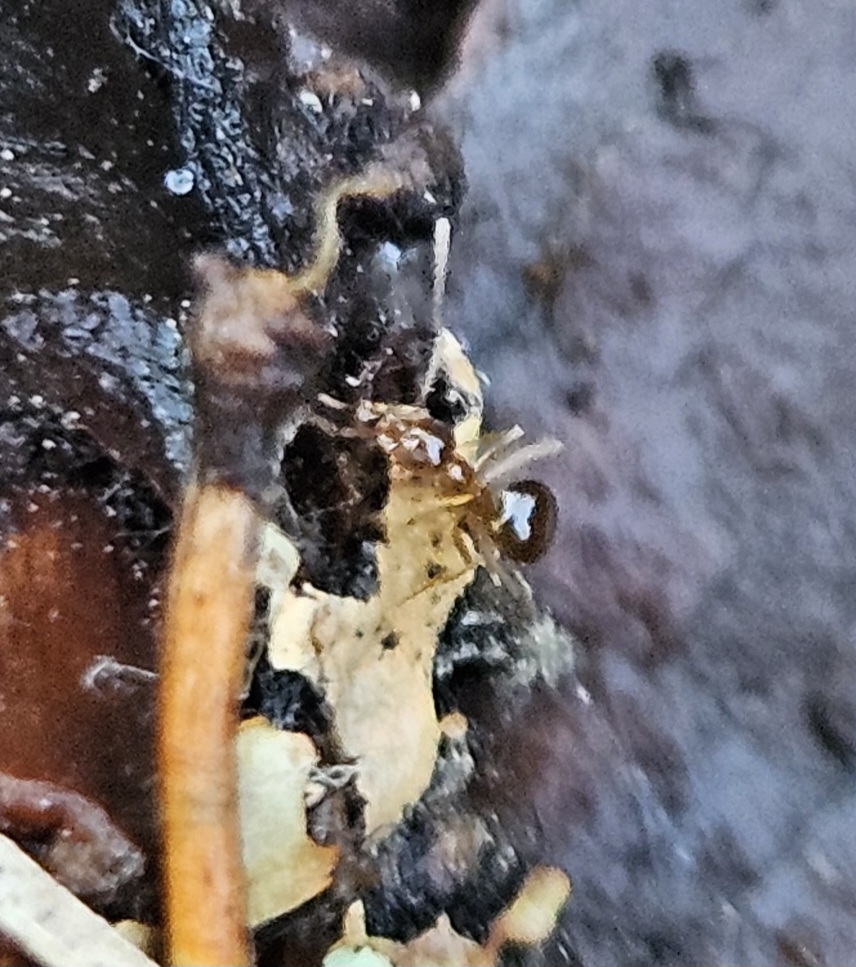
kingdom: Animalia
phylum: Arthropoda
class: Insecta
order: Hymenoptera
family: Formicidae
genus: Prenolepis
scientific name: Prenolepis imparis
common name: Small honey ant
